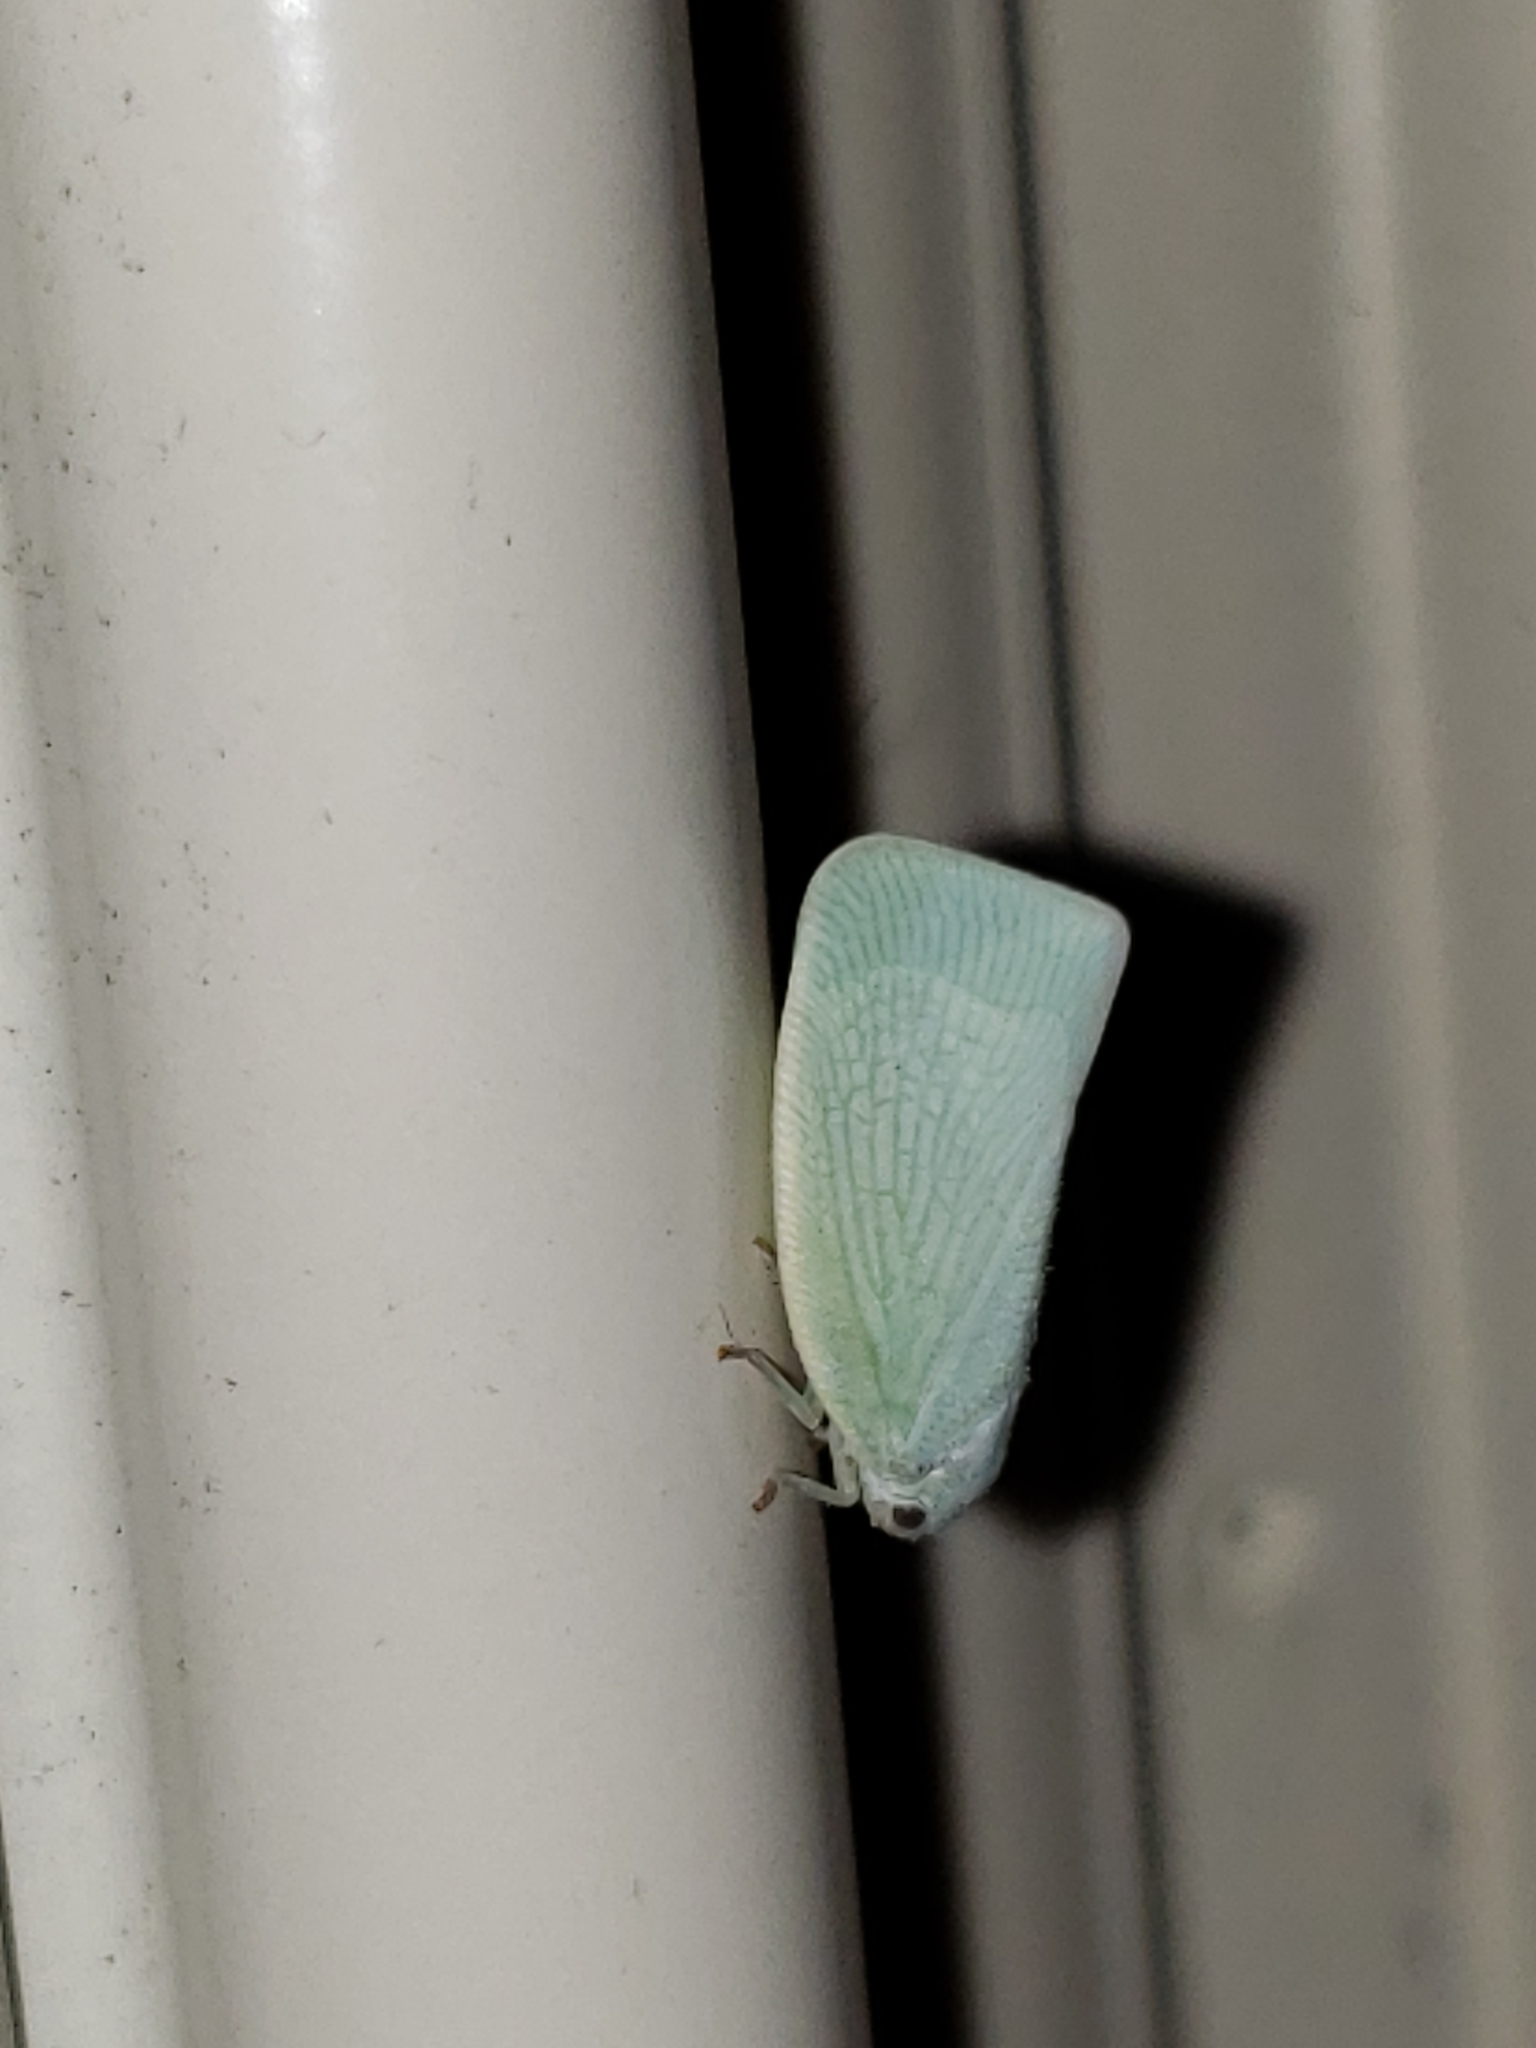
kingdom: Animalia
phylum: Arthropoda
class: Insecta
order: Hemiptera
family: Flatidae
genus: Flatormenis
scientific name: Flatormenis proxima
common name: Northern flatid planthopper
